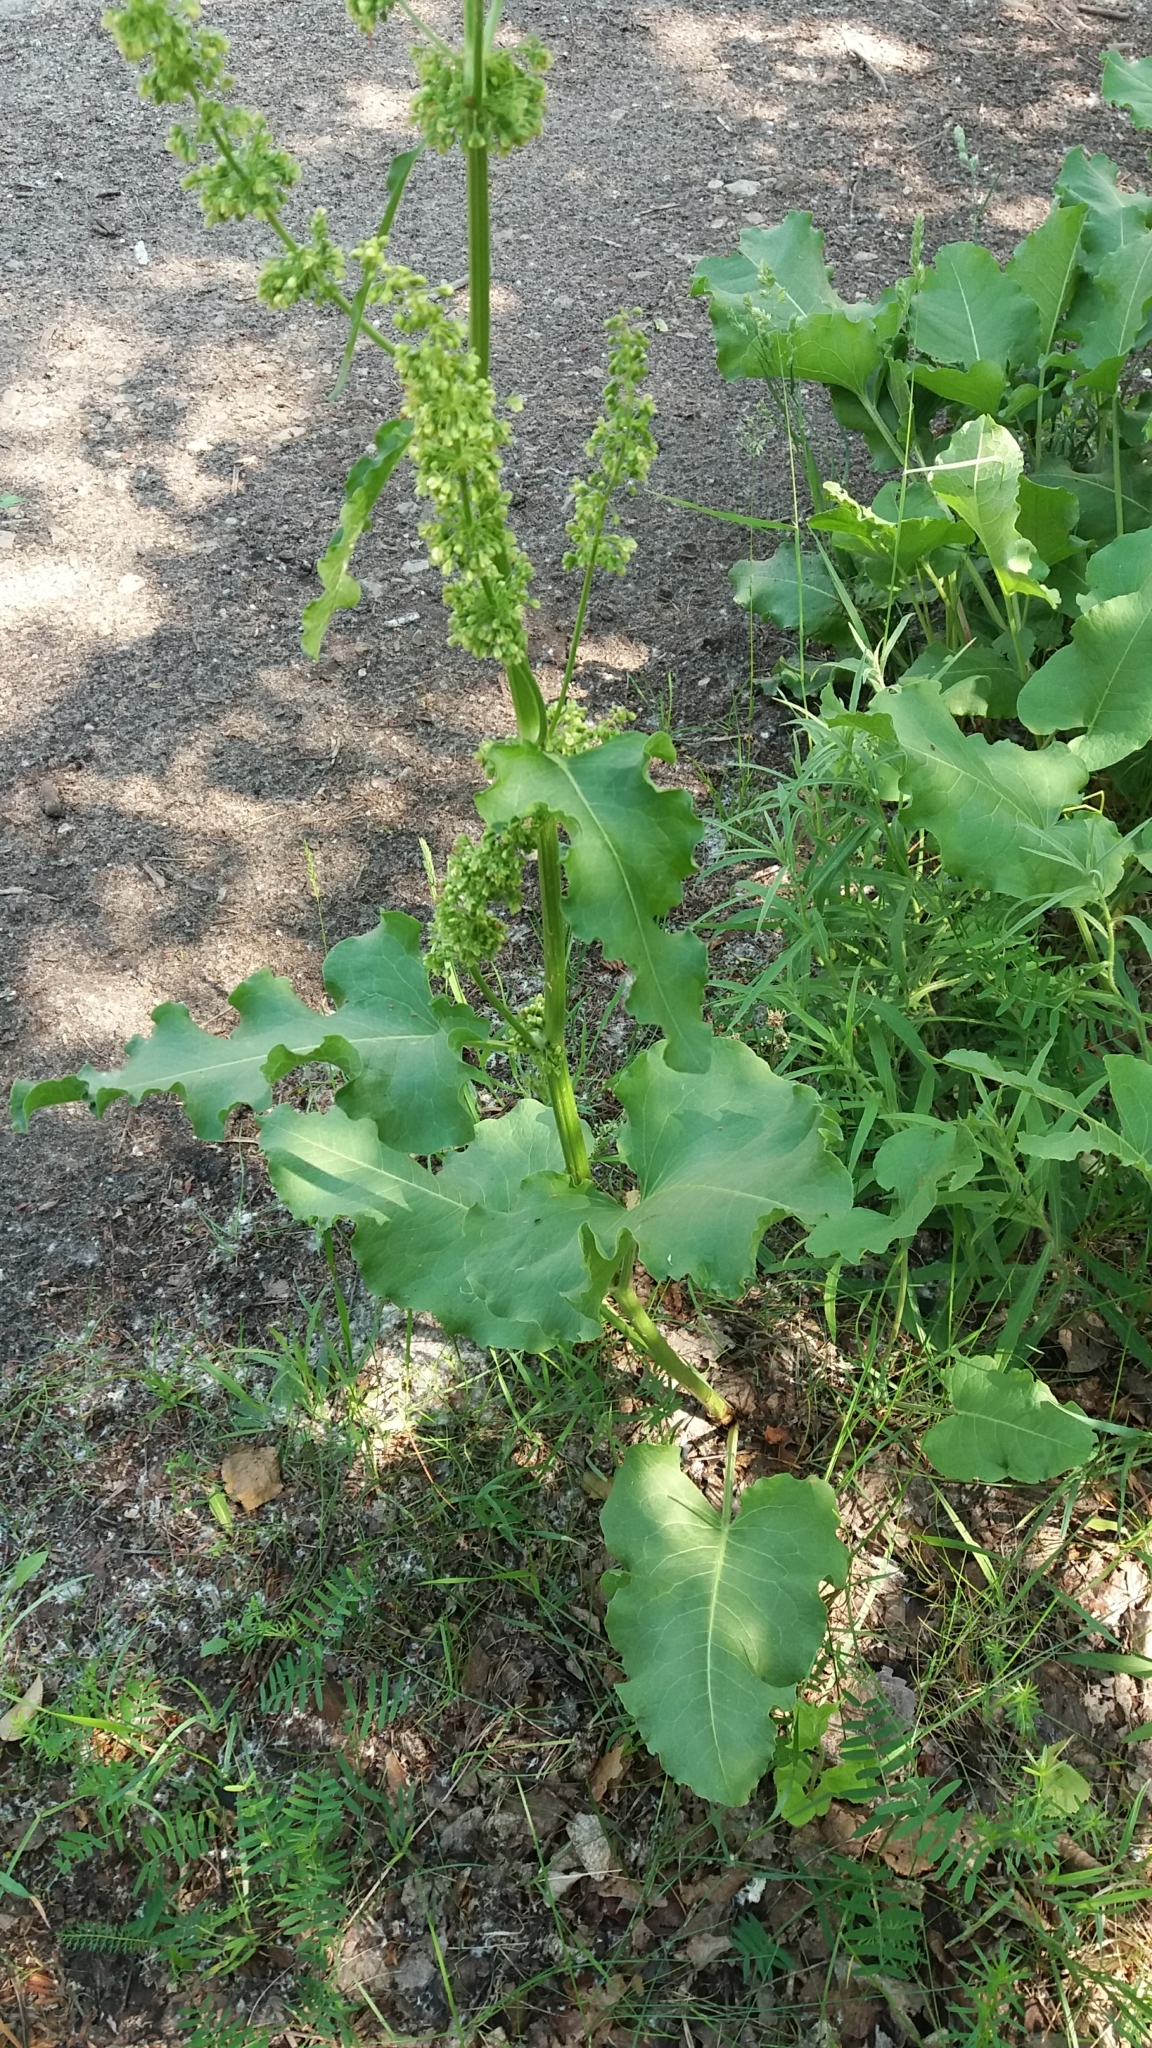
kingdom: Plantae
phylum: Tracheophyta
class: Magnoliopsida
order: Caryophyllales
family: Polygonaceae
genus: Rumex
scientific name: Rumex confertus
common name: Russian dock
